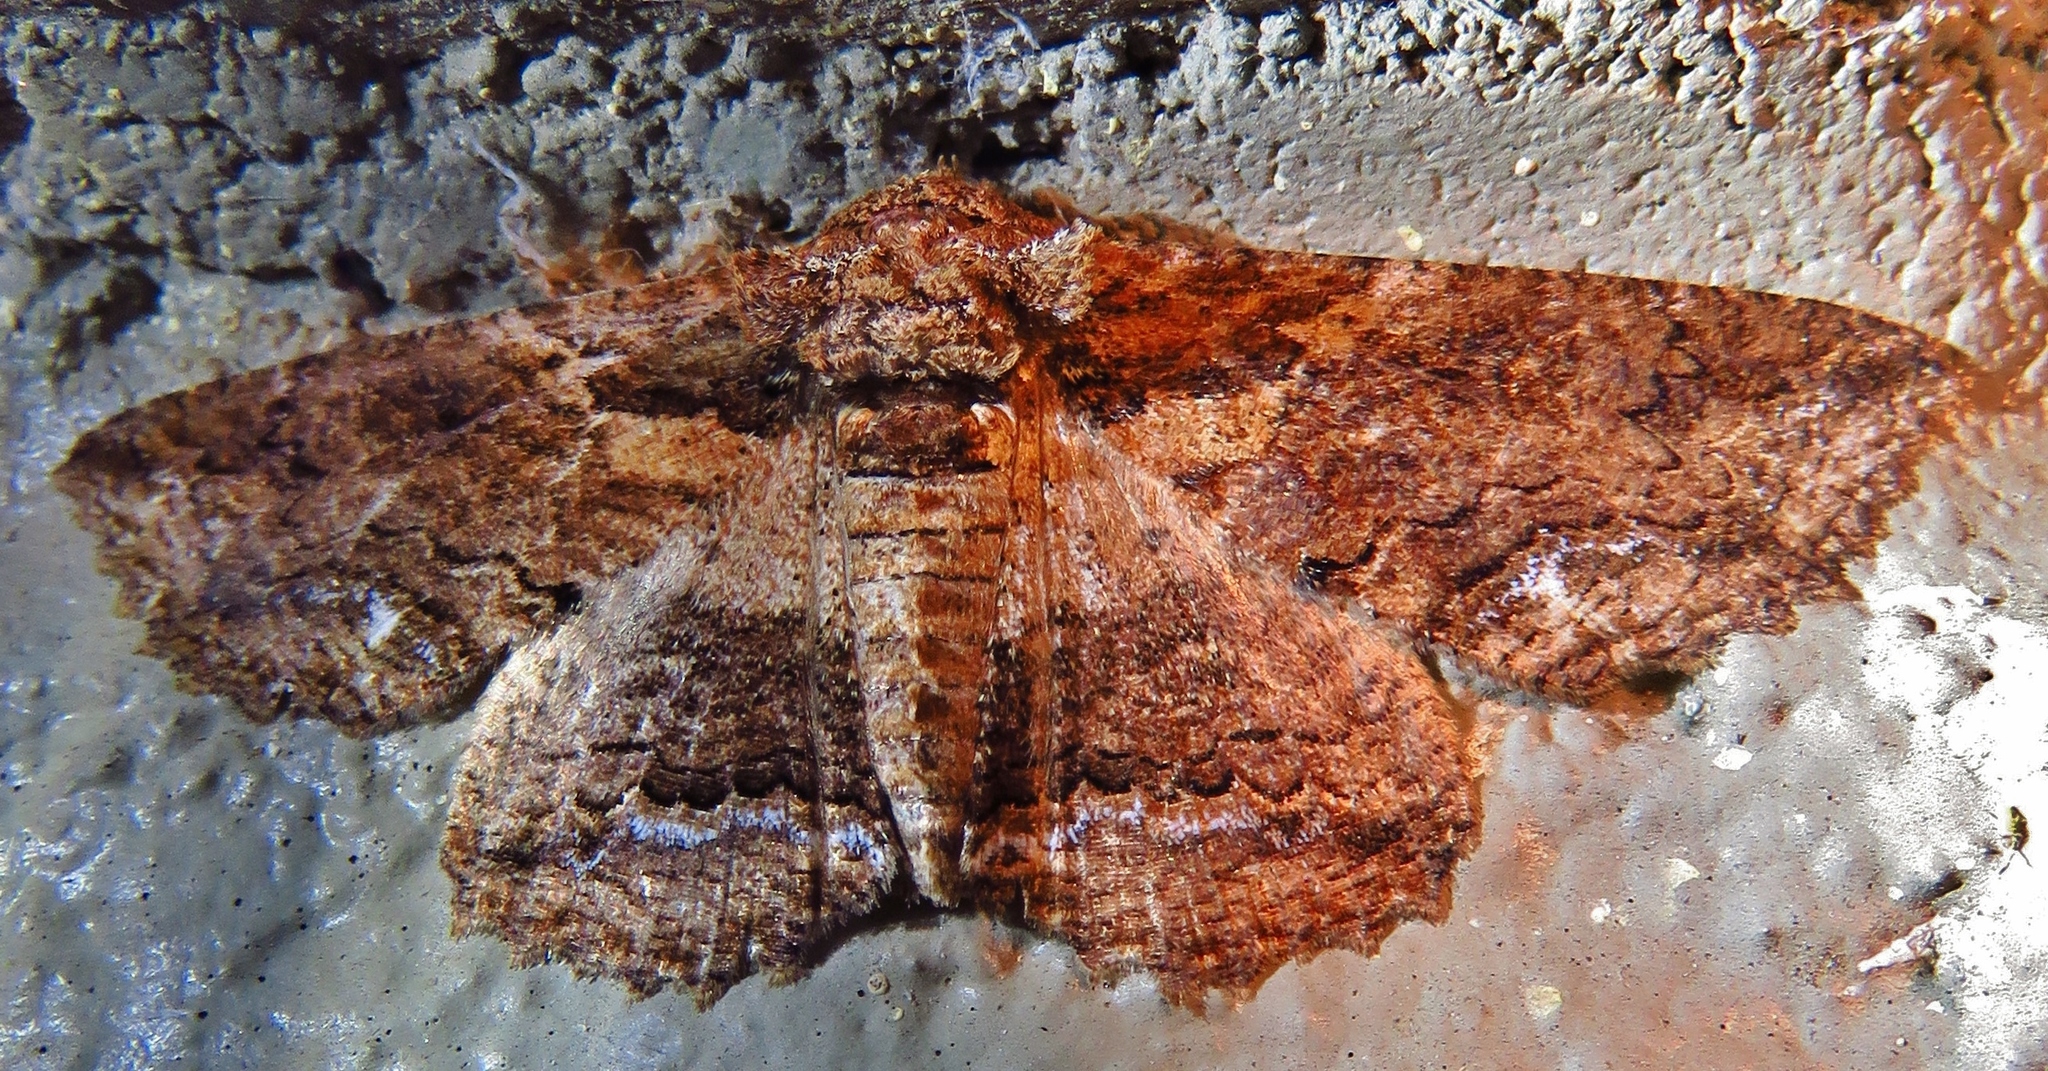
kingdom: Animalia
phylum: Arthropoda
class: Insecta
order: Lepidoptera
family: Erebidae
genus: Zale
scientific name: Zale lunata
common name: Lunate zale moth
